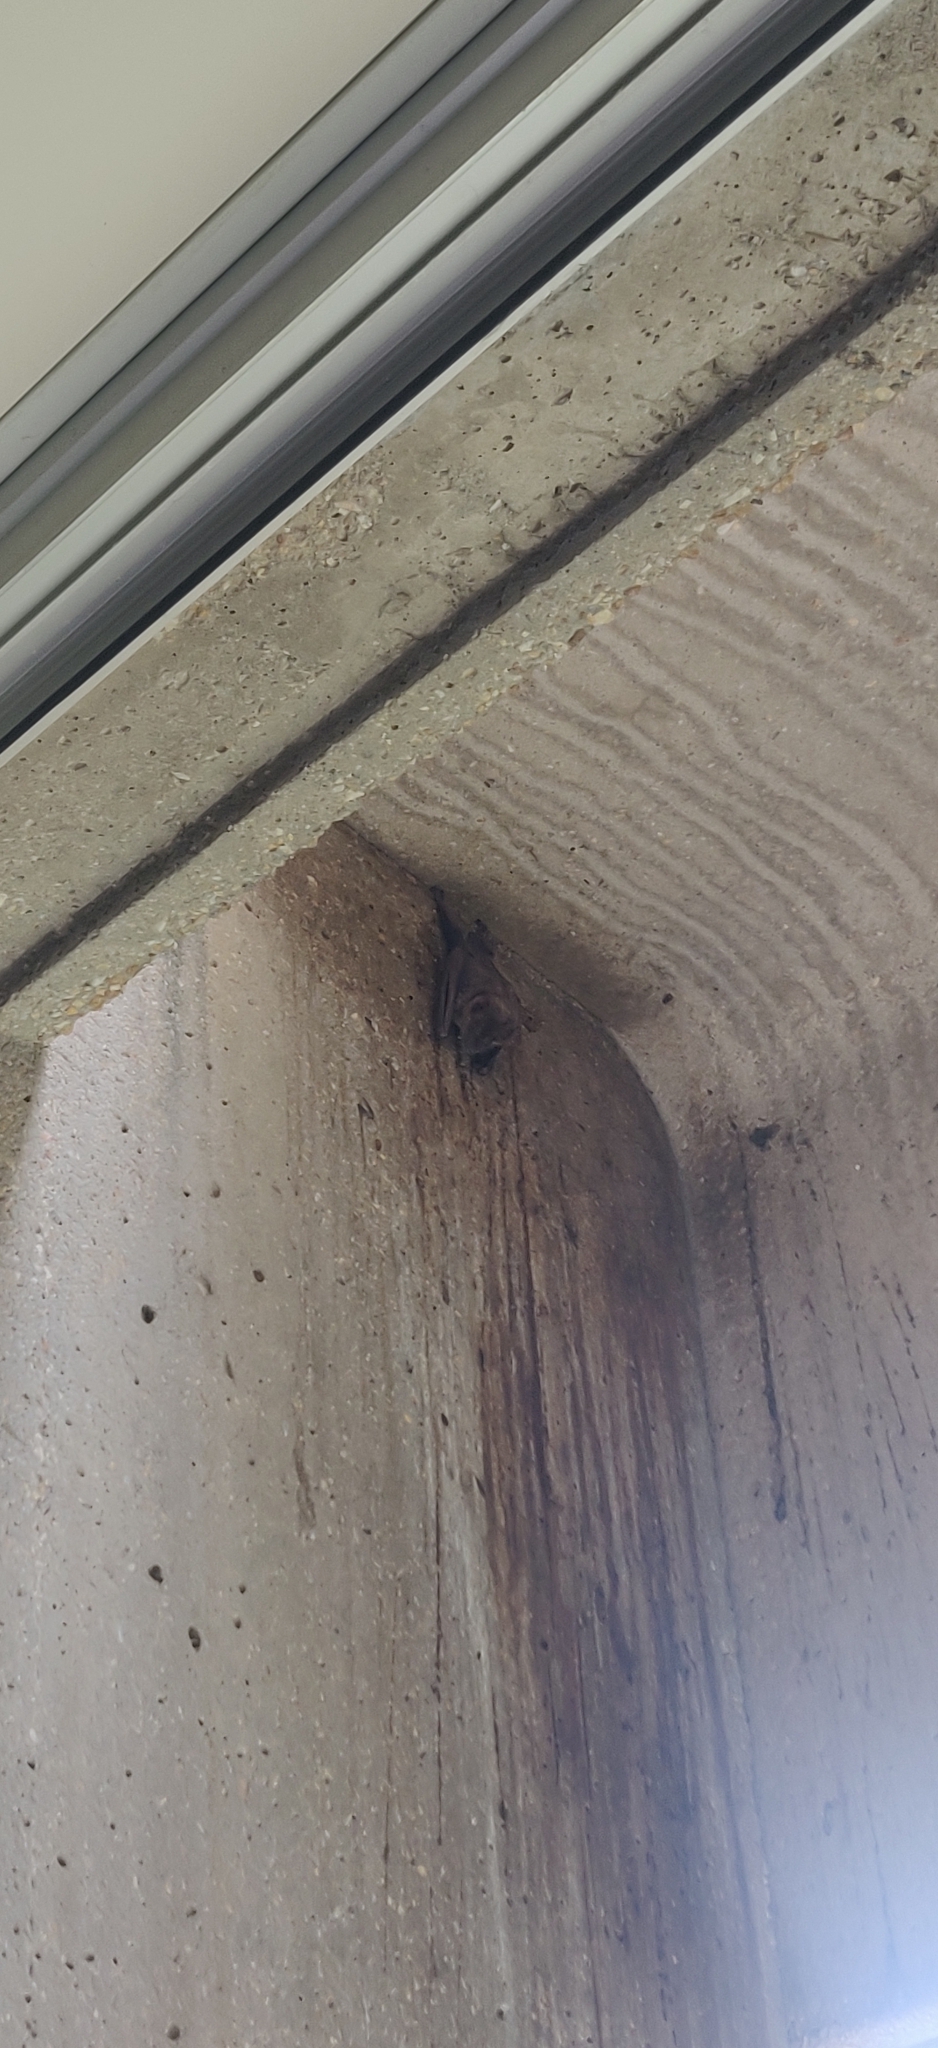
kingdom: Animalia
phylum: Chordata
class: Mammalia
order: Chiroptera
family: Phyllostomidae
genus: Artibeus
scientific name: Artibeus jamaicensis
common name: Jamaican fruit-eating bat
